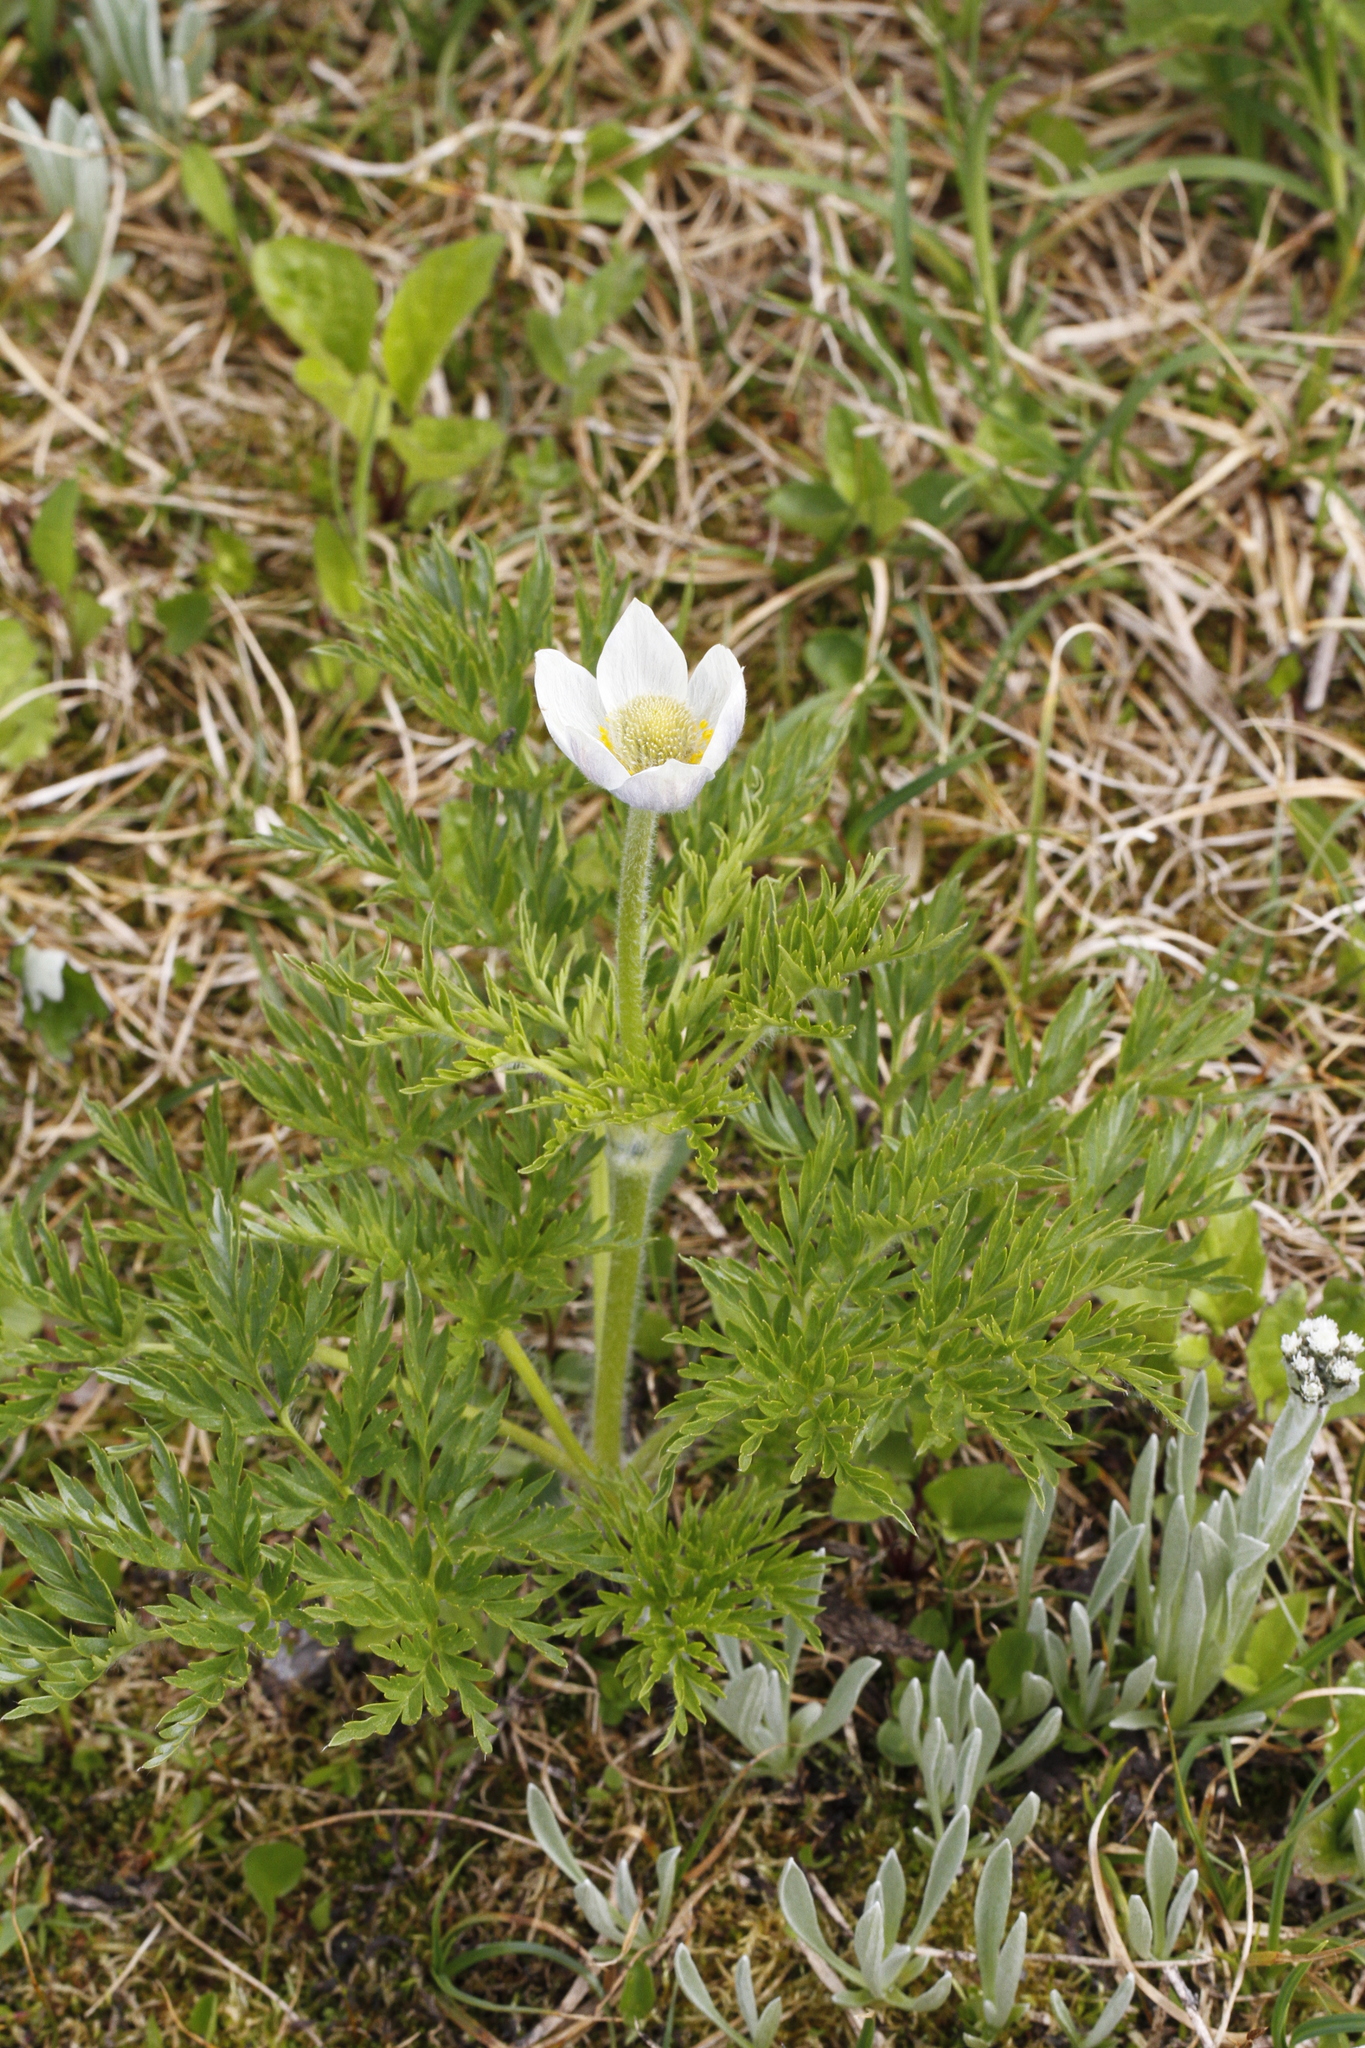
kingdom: Plantae
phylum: Tracheophyta
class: Magnoliopsida
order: Ranunculales
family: Ranunculaceae
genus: Pulsatilla
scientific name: Pulsatilla occidentalis
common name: Mountain pasqueflower
